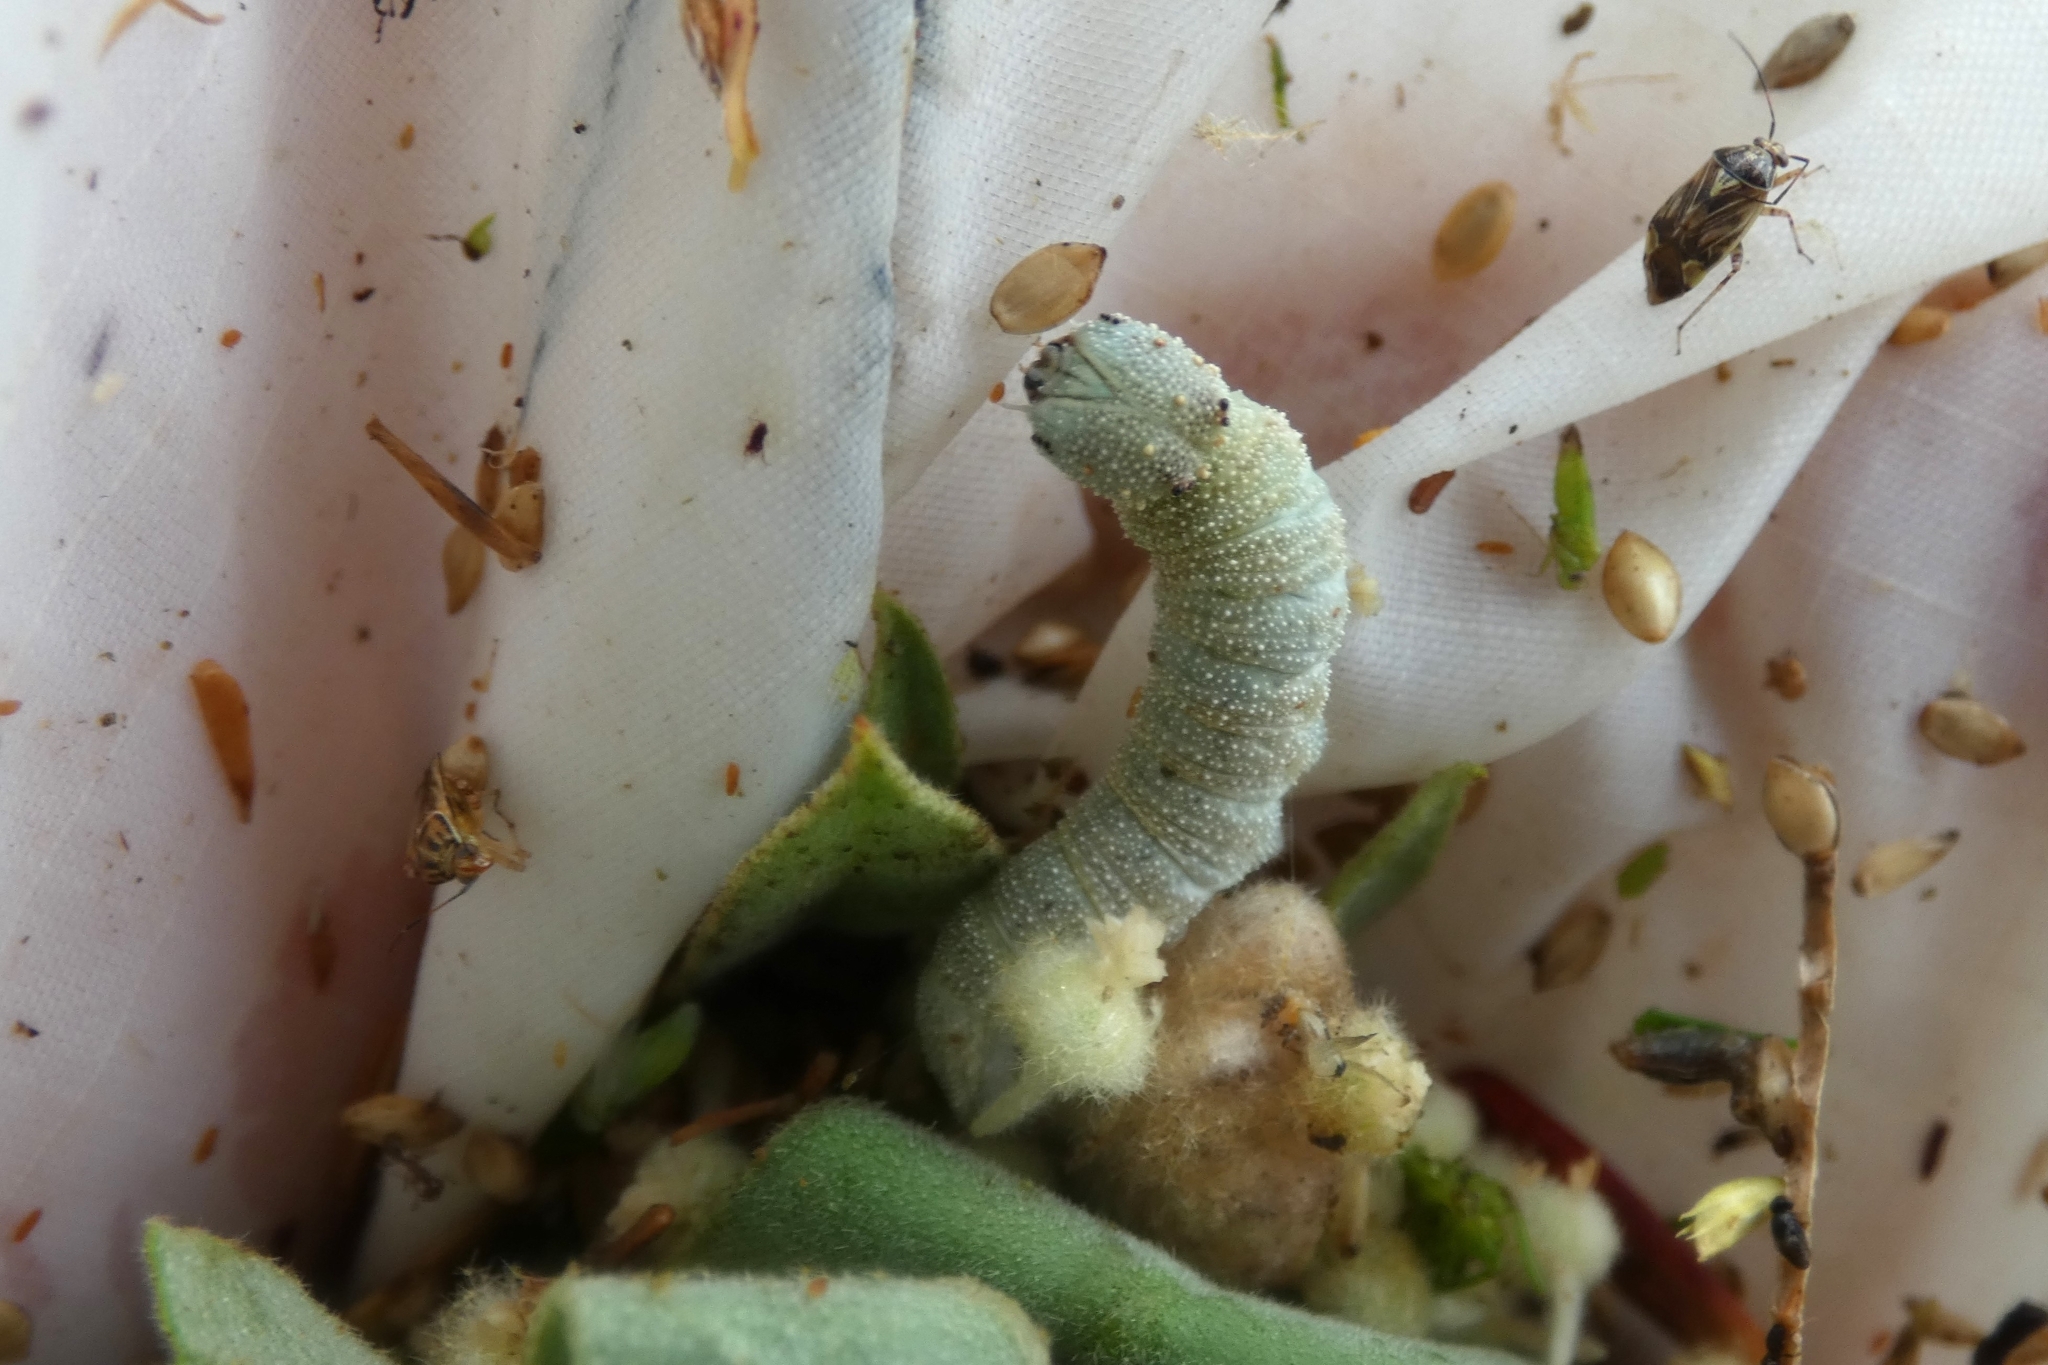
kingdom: Animalia
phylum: Arthropoda
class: Insecta
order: Lepidoptera
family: Nymphalidae
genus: Anaea
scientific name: Anaea andria
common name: Goatweed leafwing
